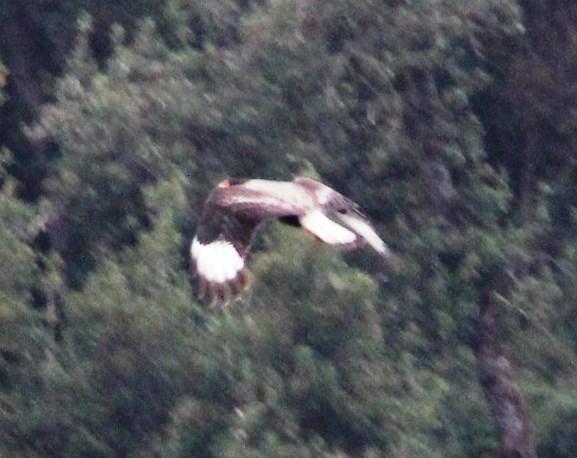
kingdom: Animalia
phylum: Chordata
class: Aves
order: Falconiformes
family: Falconidae
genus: Caracara
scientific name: Caracara plancus
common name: Southern caracara
